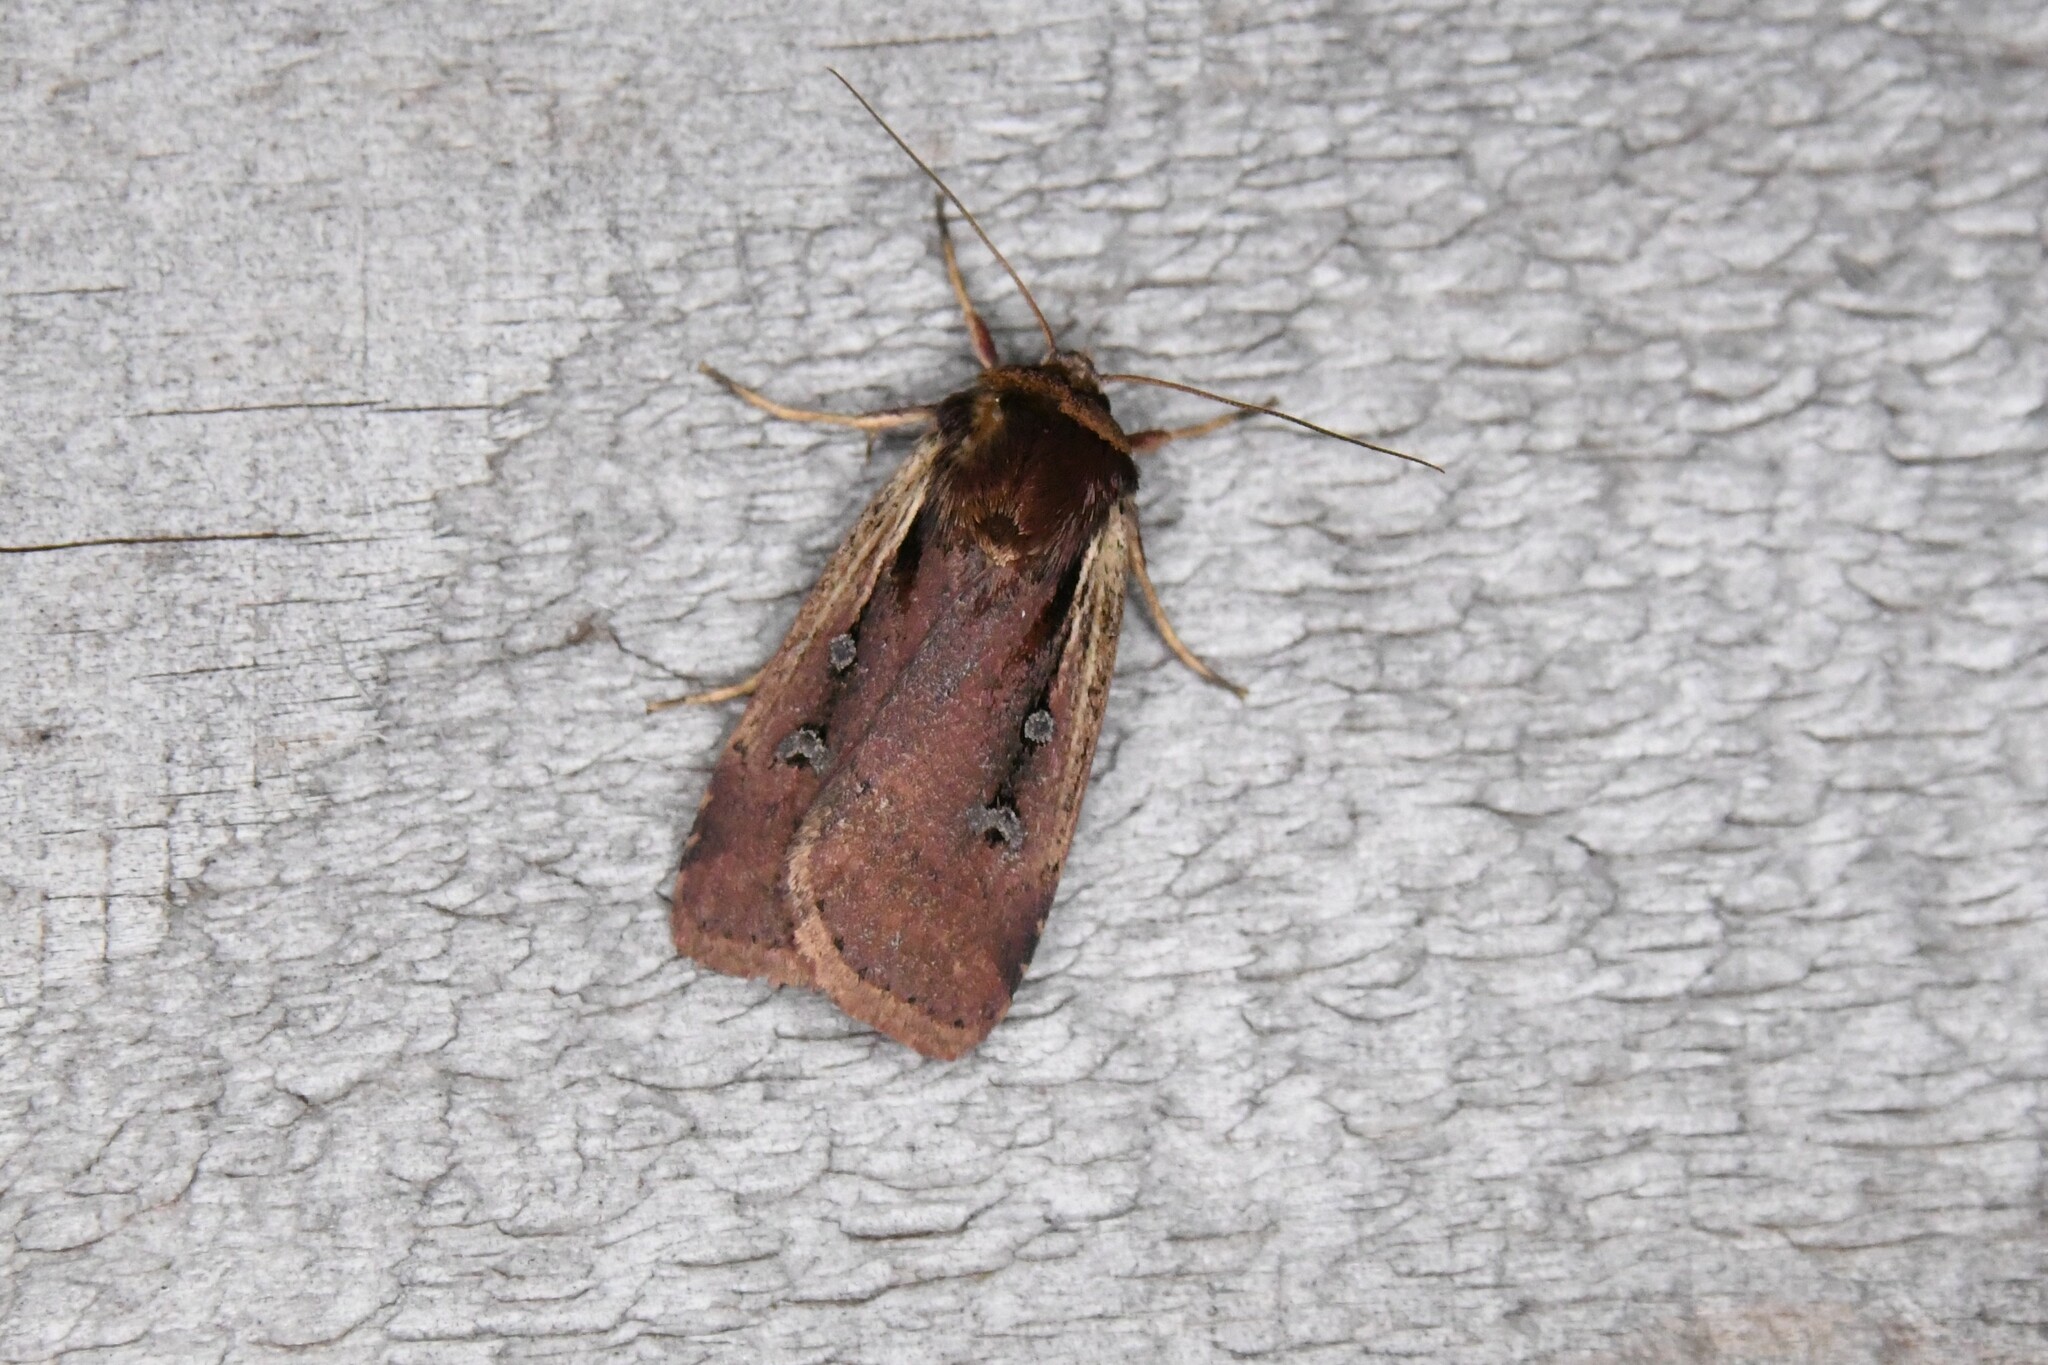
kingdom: Animalia
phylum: Arthropoda
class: Insecta
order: Lepidoptera
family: Noctuidae
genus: Ochropleura
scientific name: Ochropleura implecta
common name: Flame-shouldered dart
